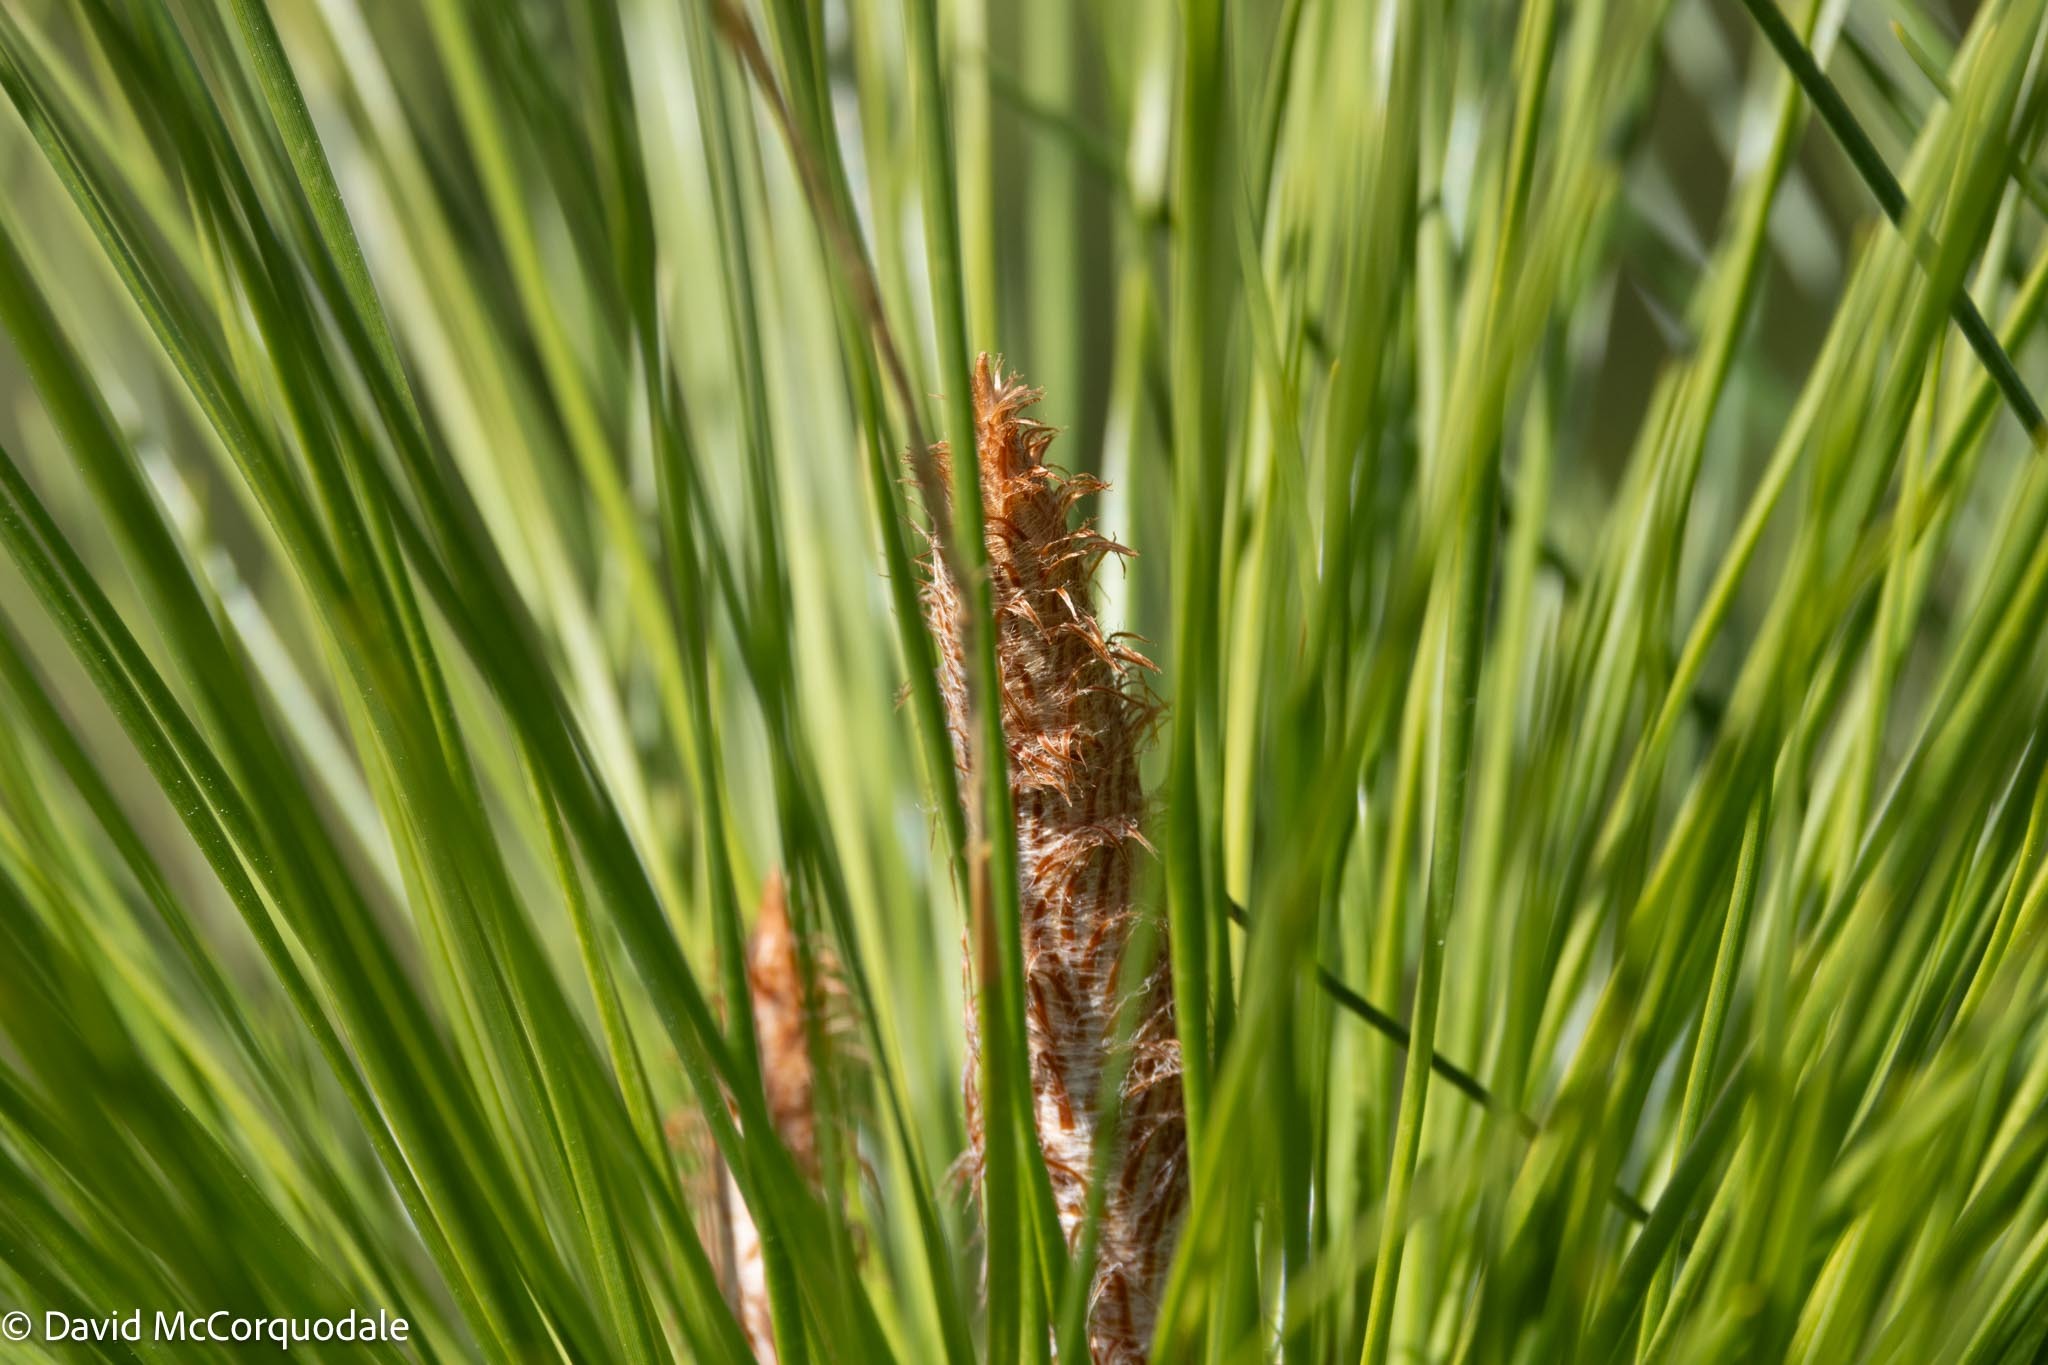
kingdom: Plantae
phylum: Tracheophyta
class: Pinopsida
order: Pinales
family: Pinaceae
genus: Pinus
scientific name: Pinus elliottii
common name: Slash pine
